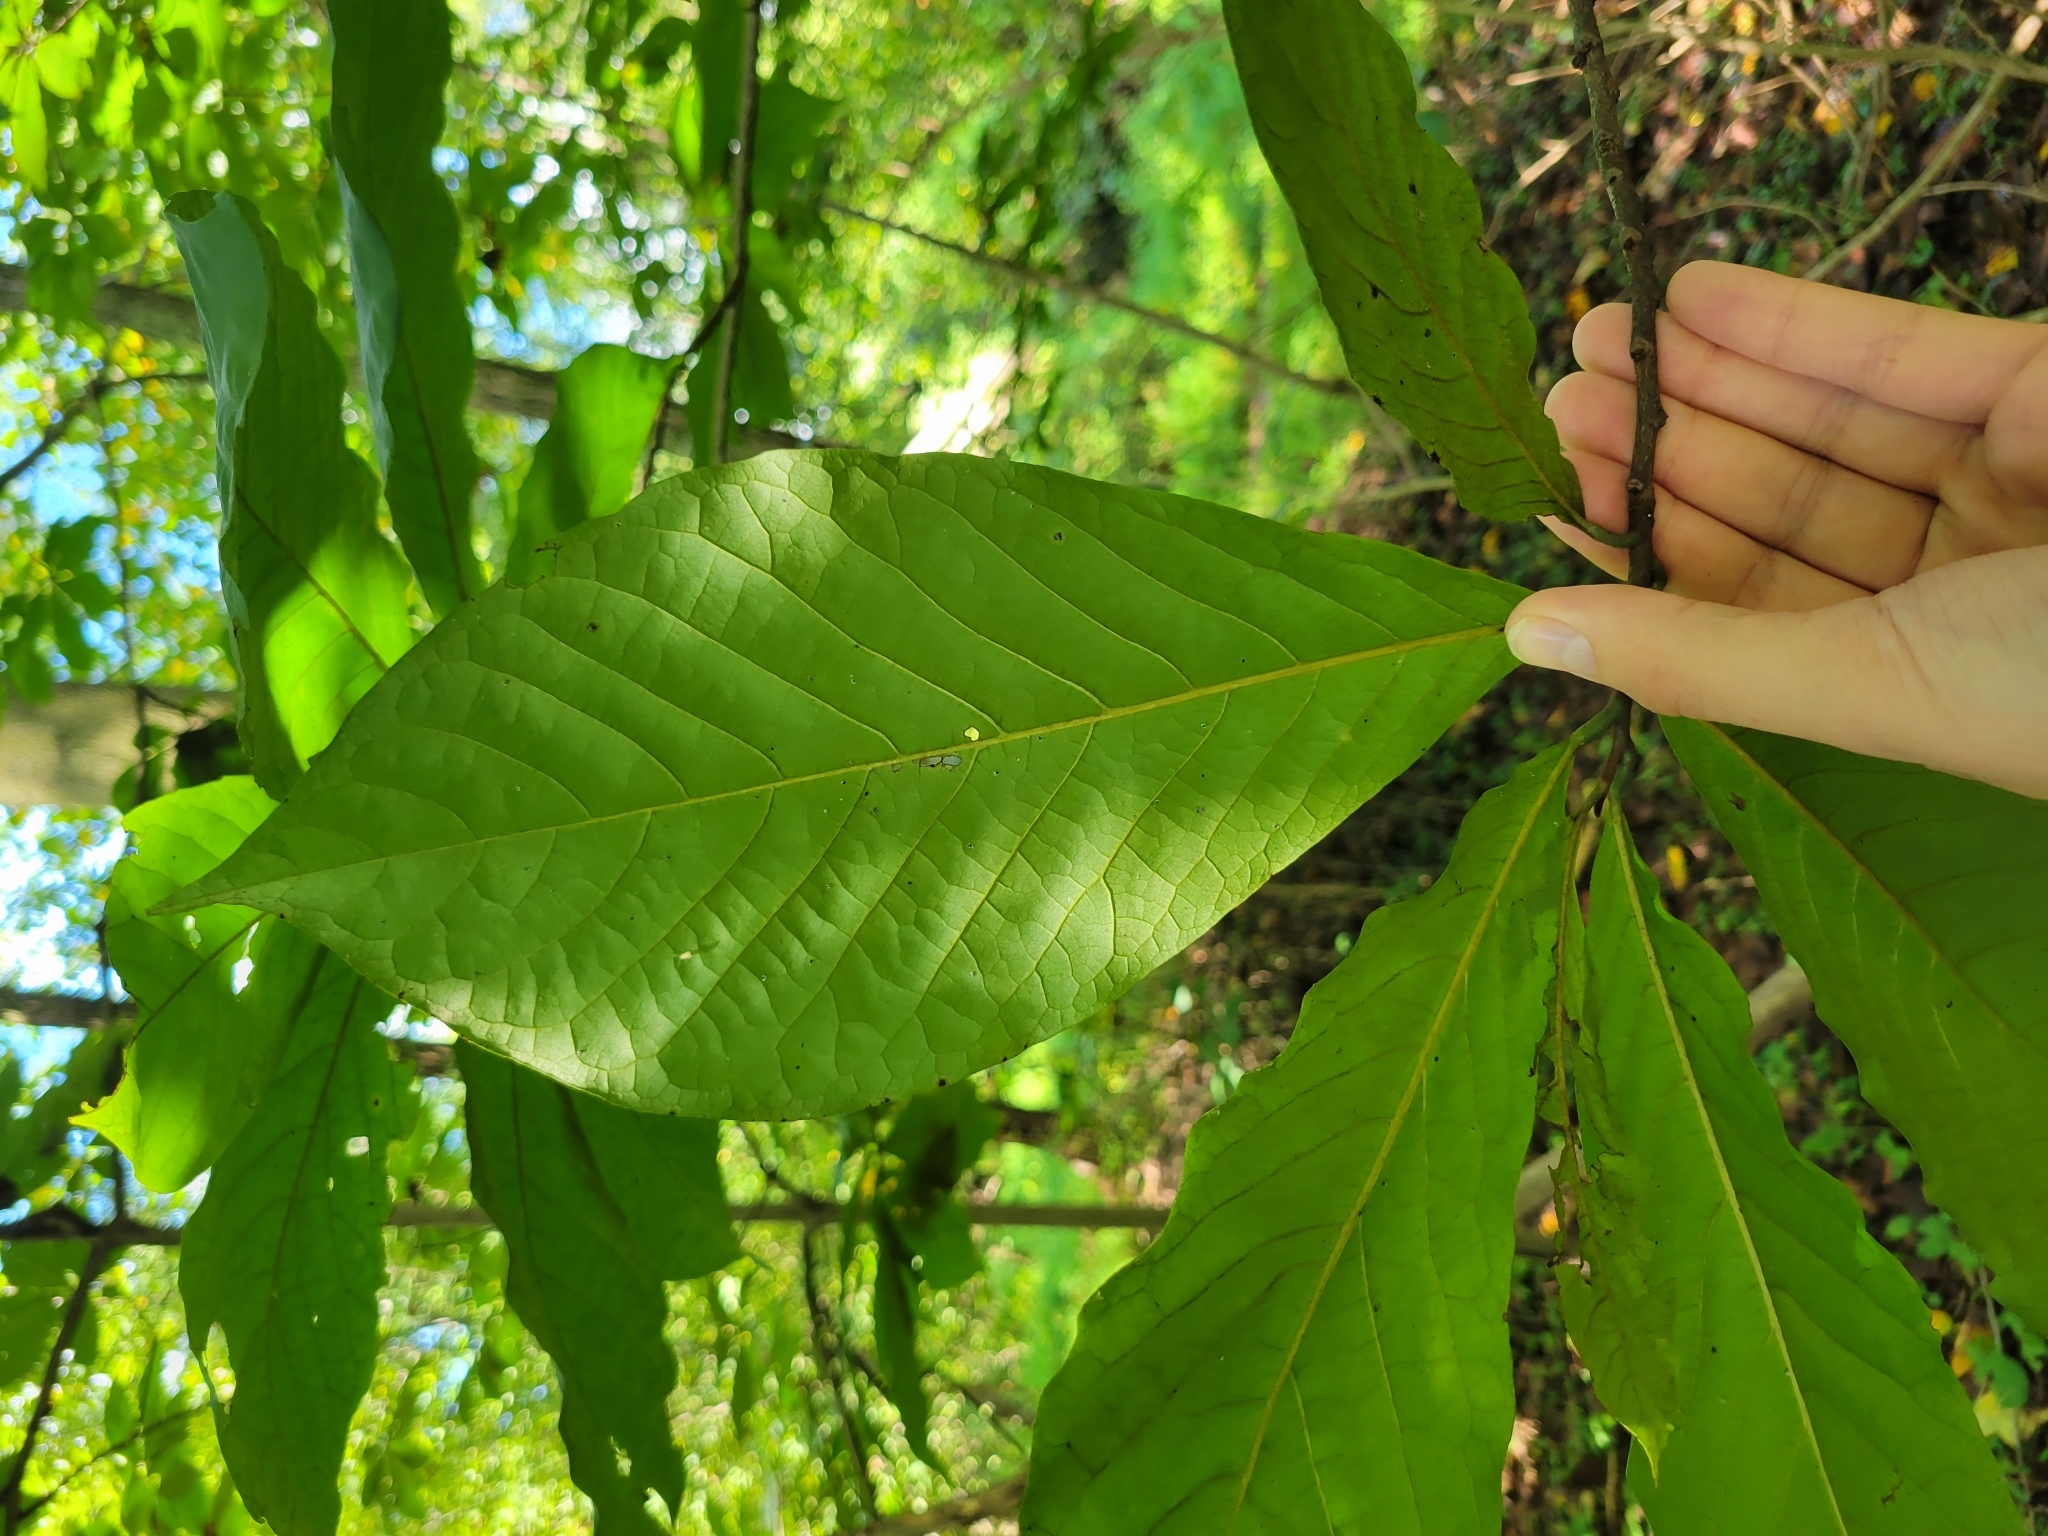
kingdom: Plantae
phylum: Tracheophyta
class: Magnoliopsida
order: Magnoliales
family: Annonaceae
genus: Asimina
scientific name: Asimina triloba
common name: Dog-banana
